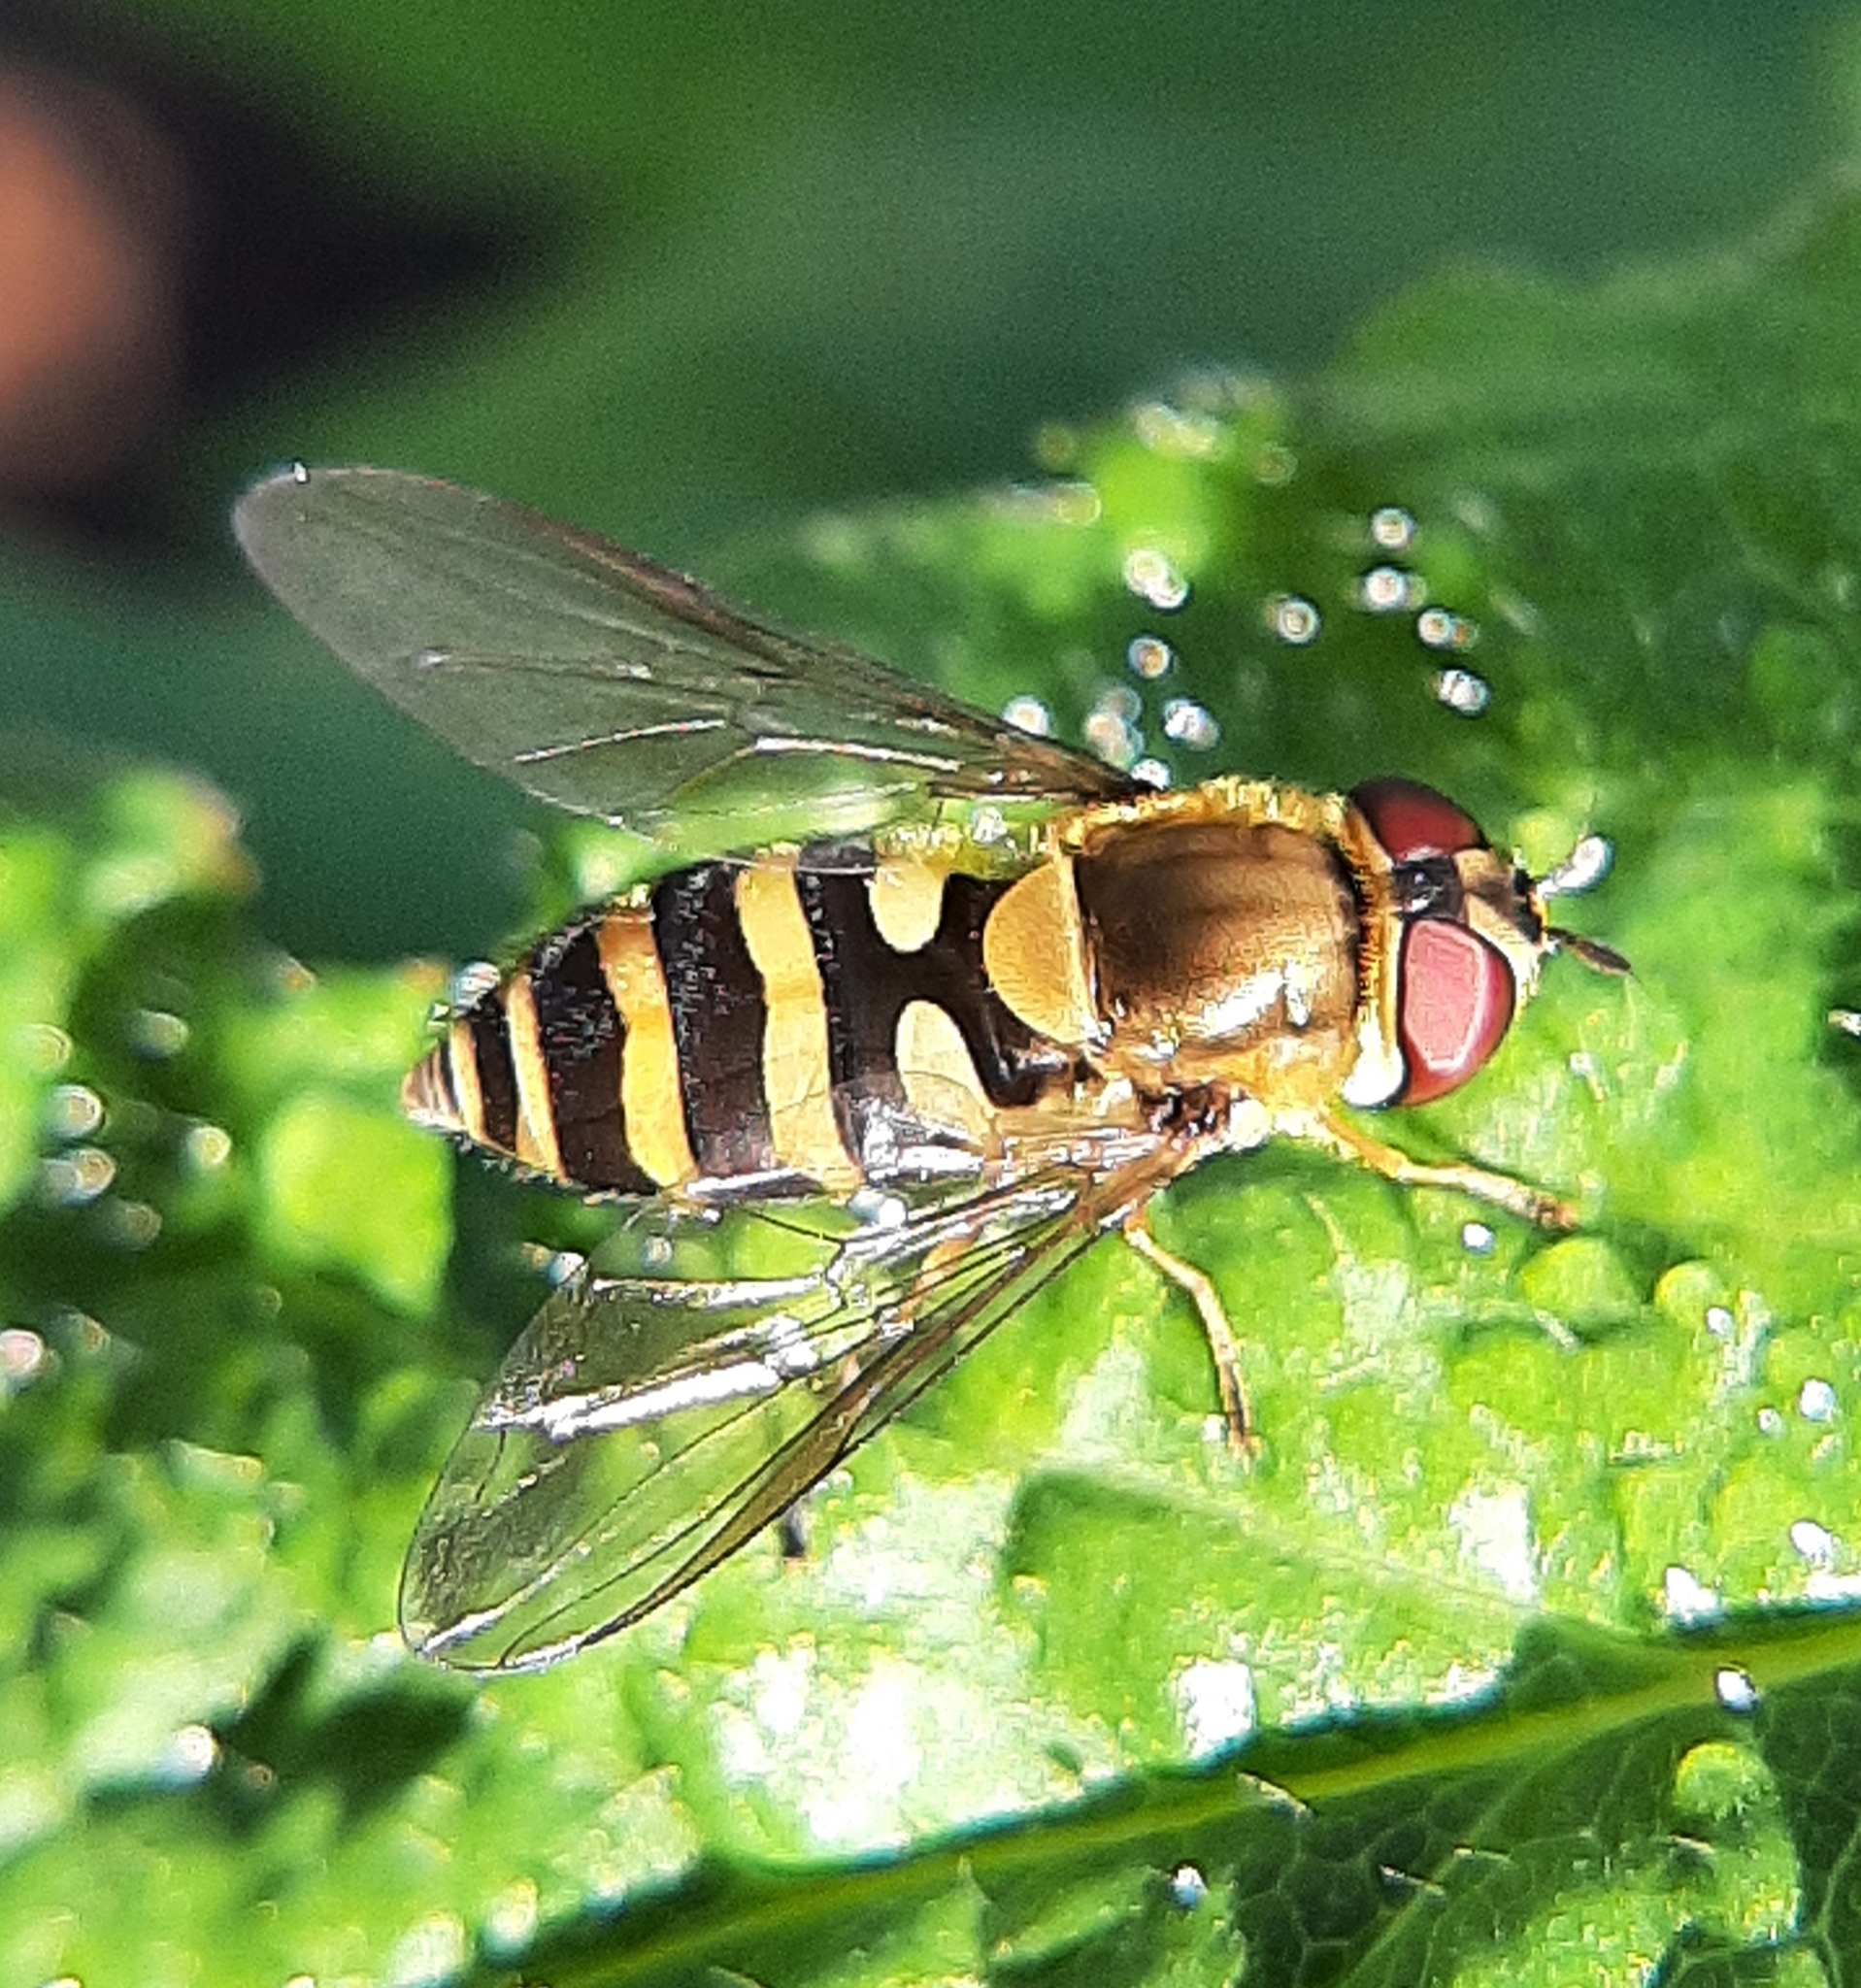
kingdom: Animalia
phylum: Arthropoda
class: Insecta
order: Diptera
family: Syrphidae
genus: Syrphus
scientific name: Syrphus
